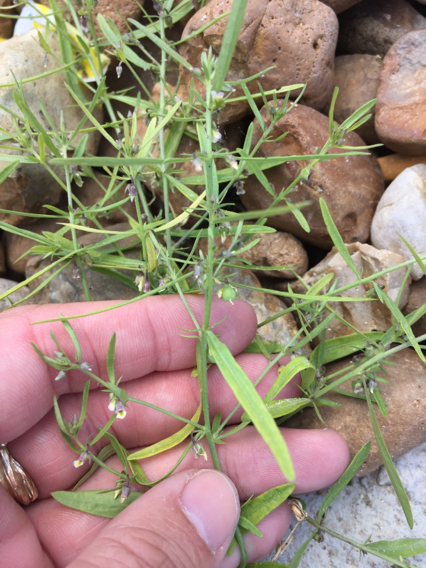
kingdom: Plantae
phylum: Tracheophyta
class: Magnoliopsida
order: Malpighiales
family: Violaceae
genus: Pombalia
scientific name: Pombalia verticillata
